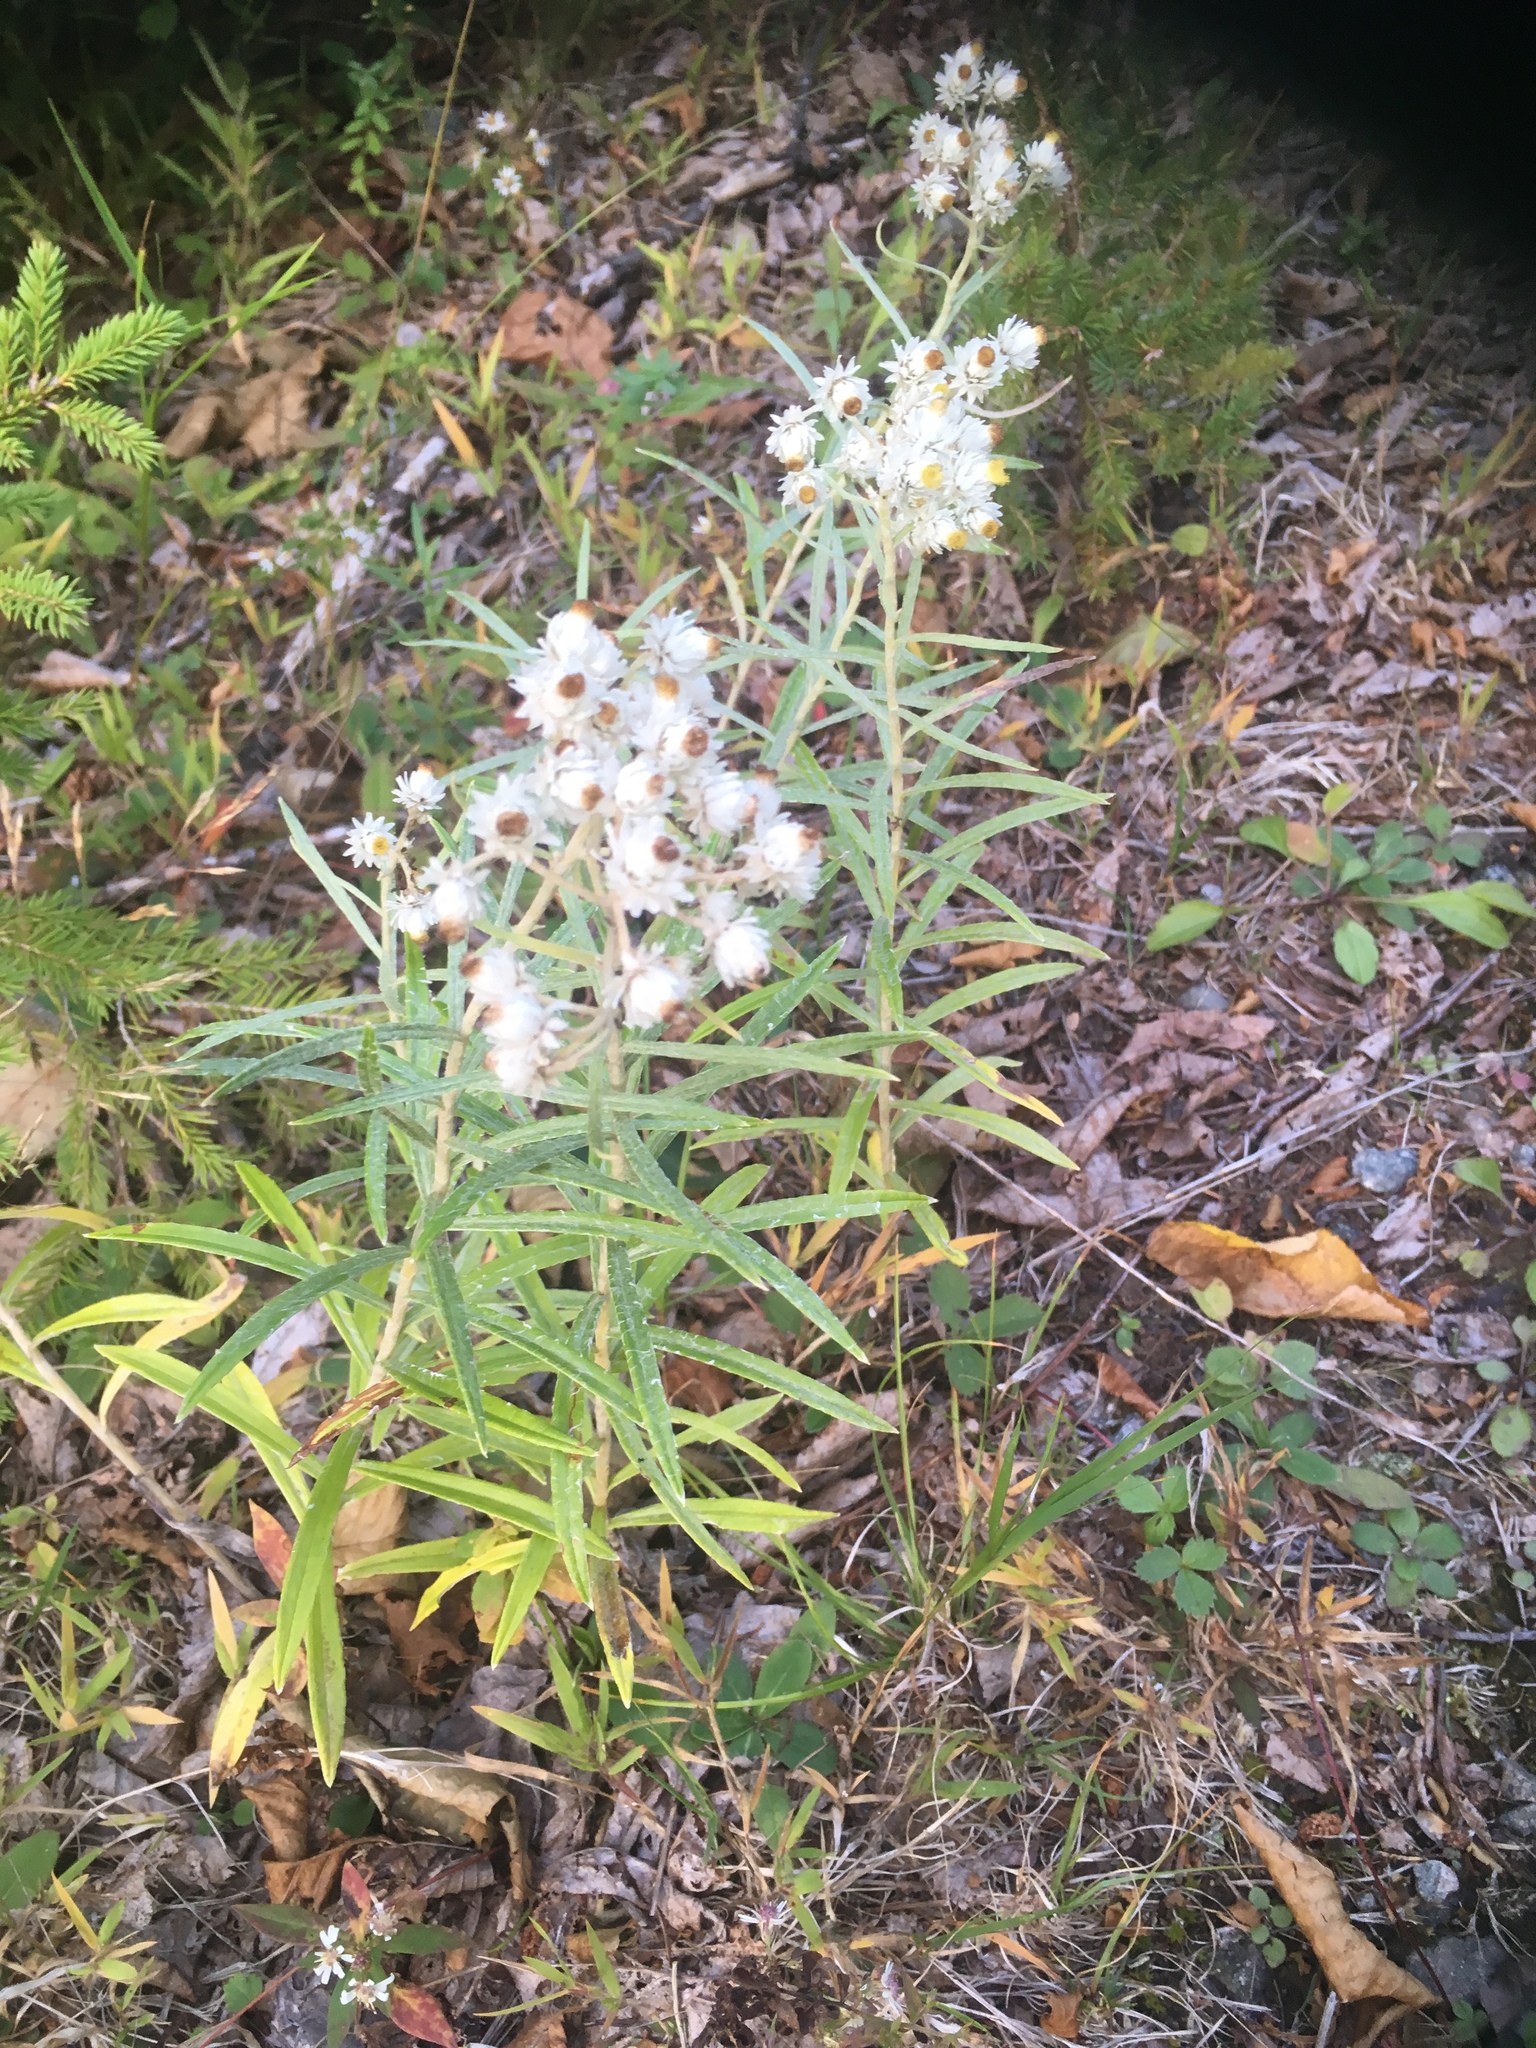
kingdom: Plantae
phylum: Tracheophyta
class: Magnoliopsida
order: Asterales
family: Asteraceae
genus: Anaphalis
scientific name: Anaphalis margaritacea
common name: Pearly everlasting
